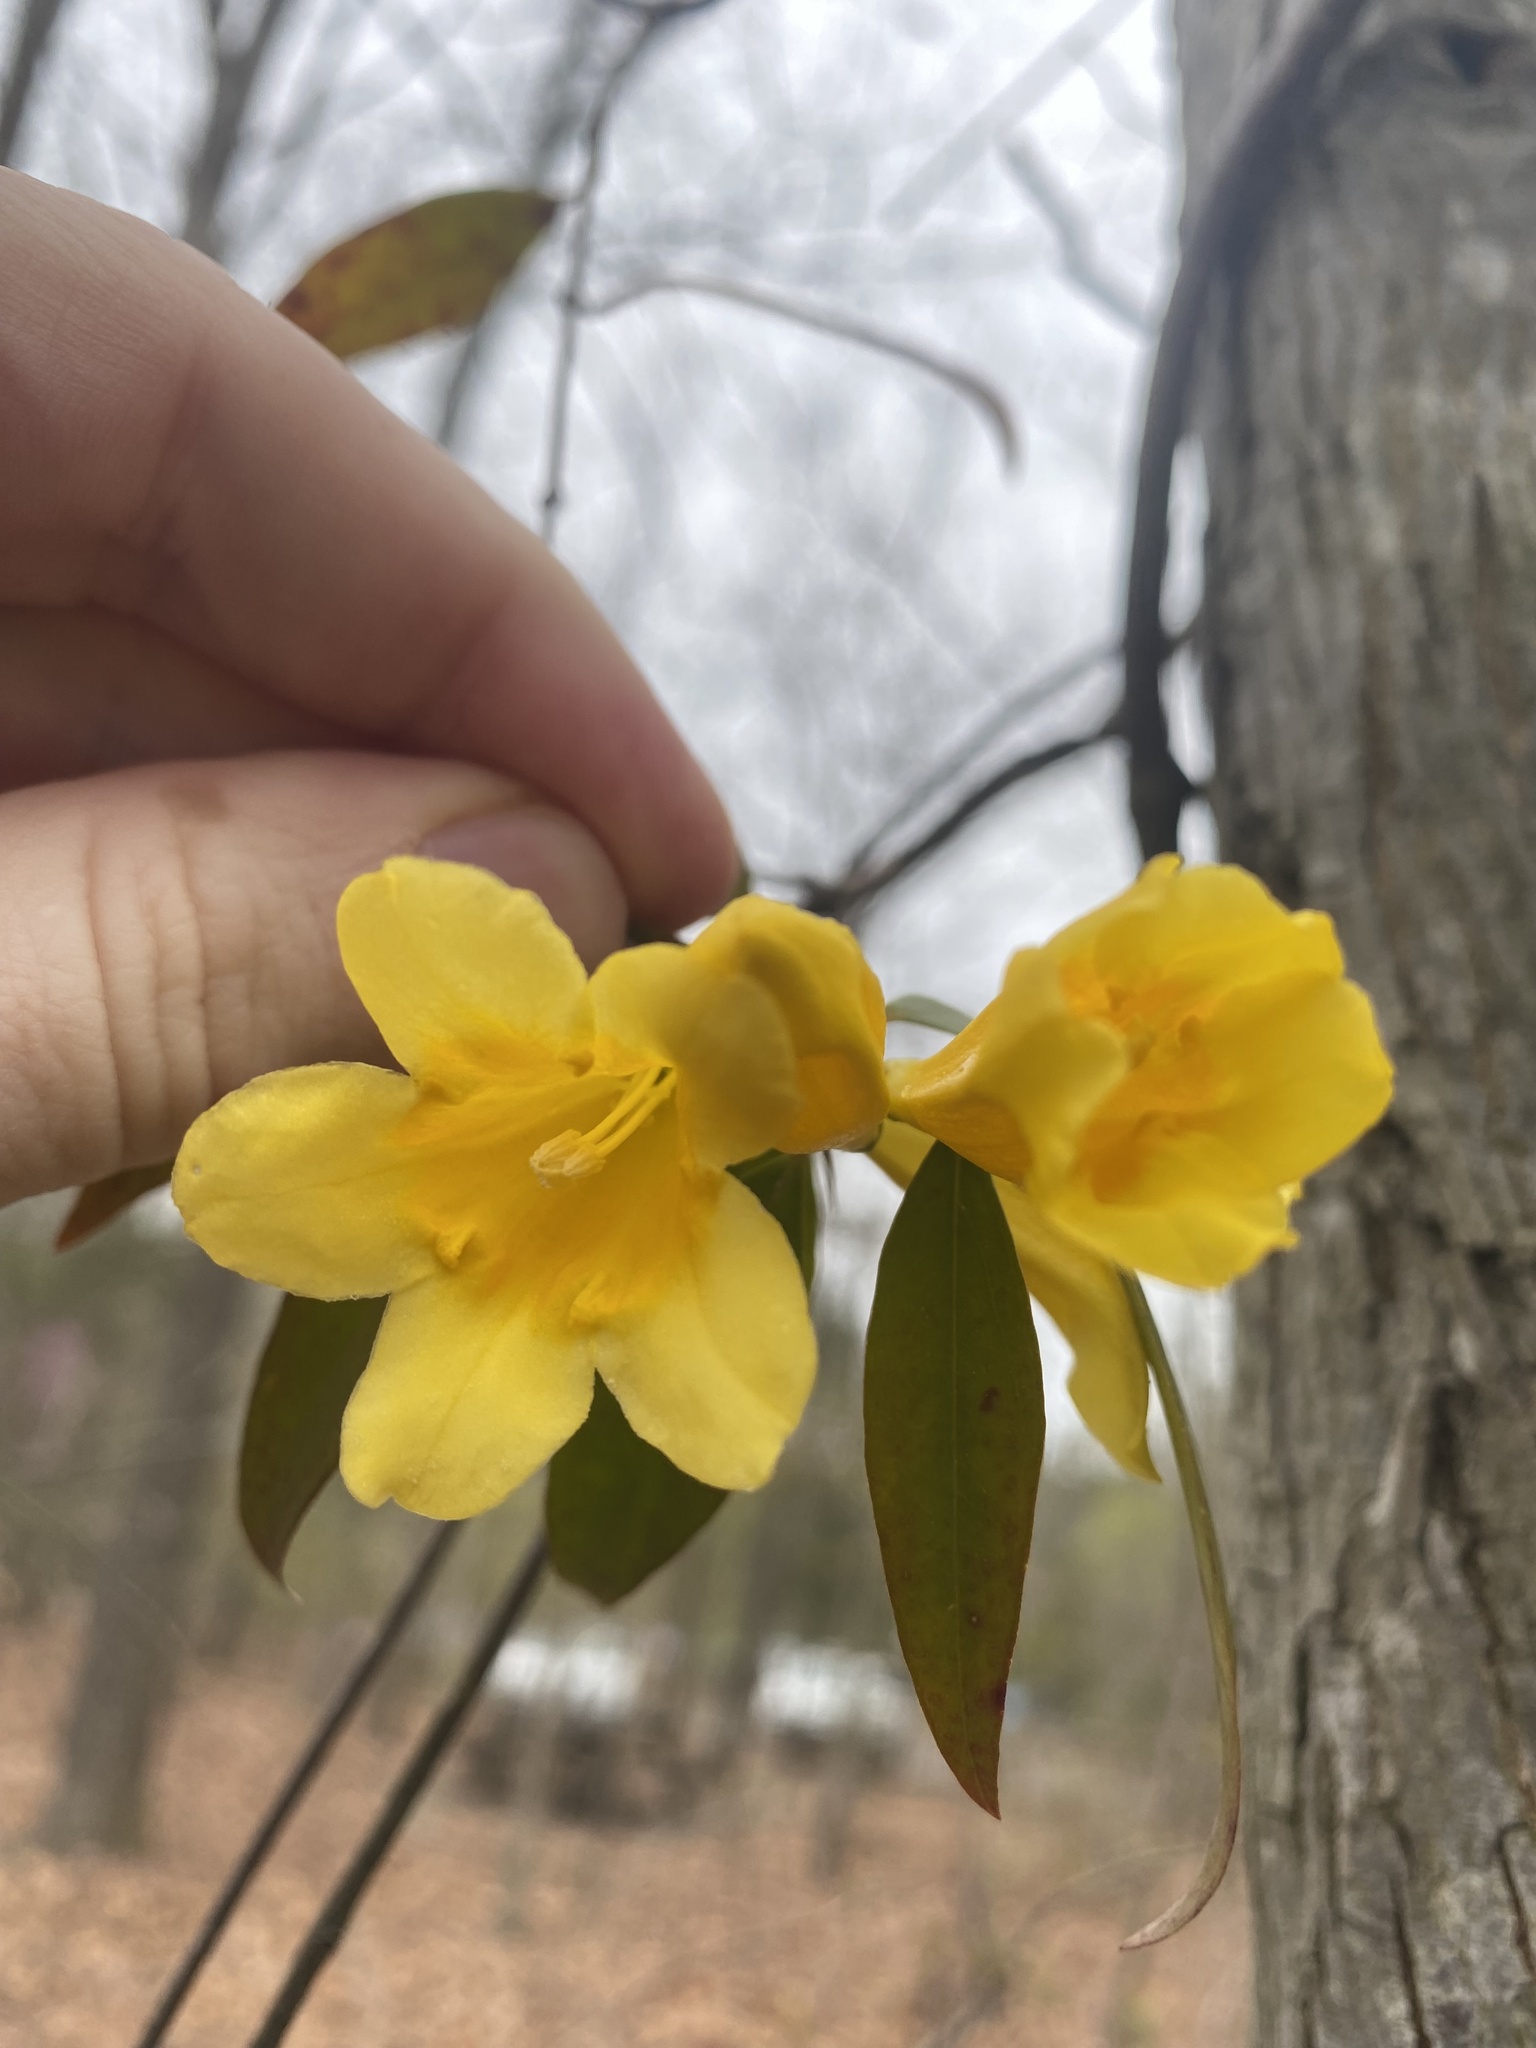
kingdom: Plantae
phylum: Tracheophyta
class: Magnoliopsida
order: Gentianales
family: Gelsemiaceae
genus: Gelsemium
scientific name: Gelsemium sempervirens
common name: Carolina-jasmine
